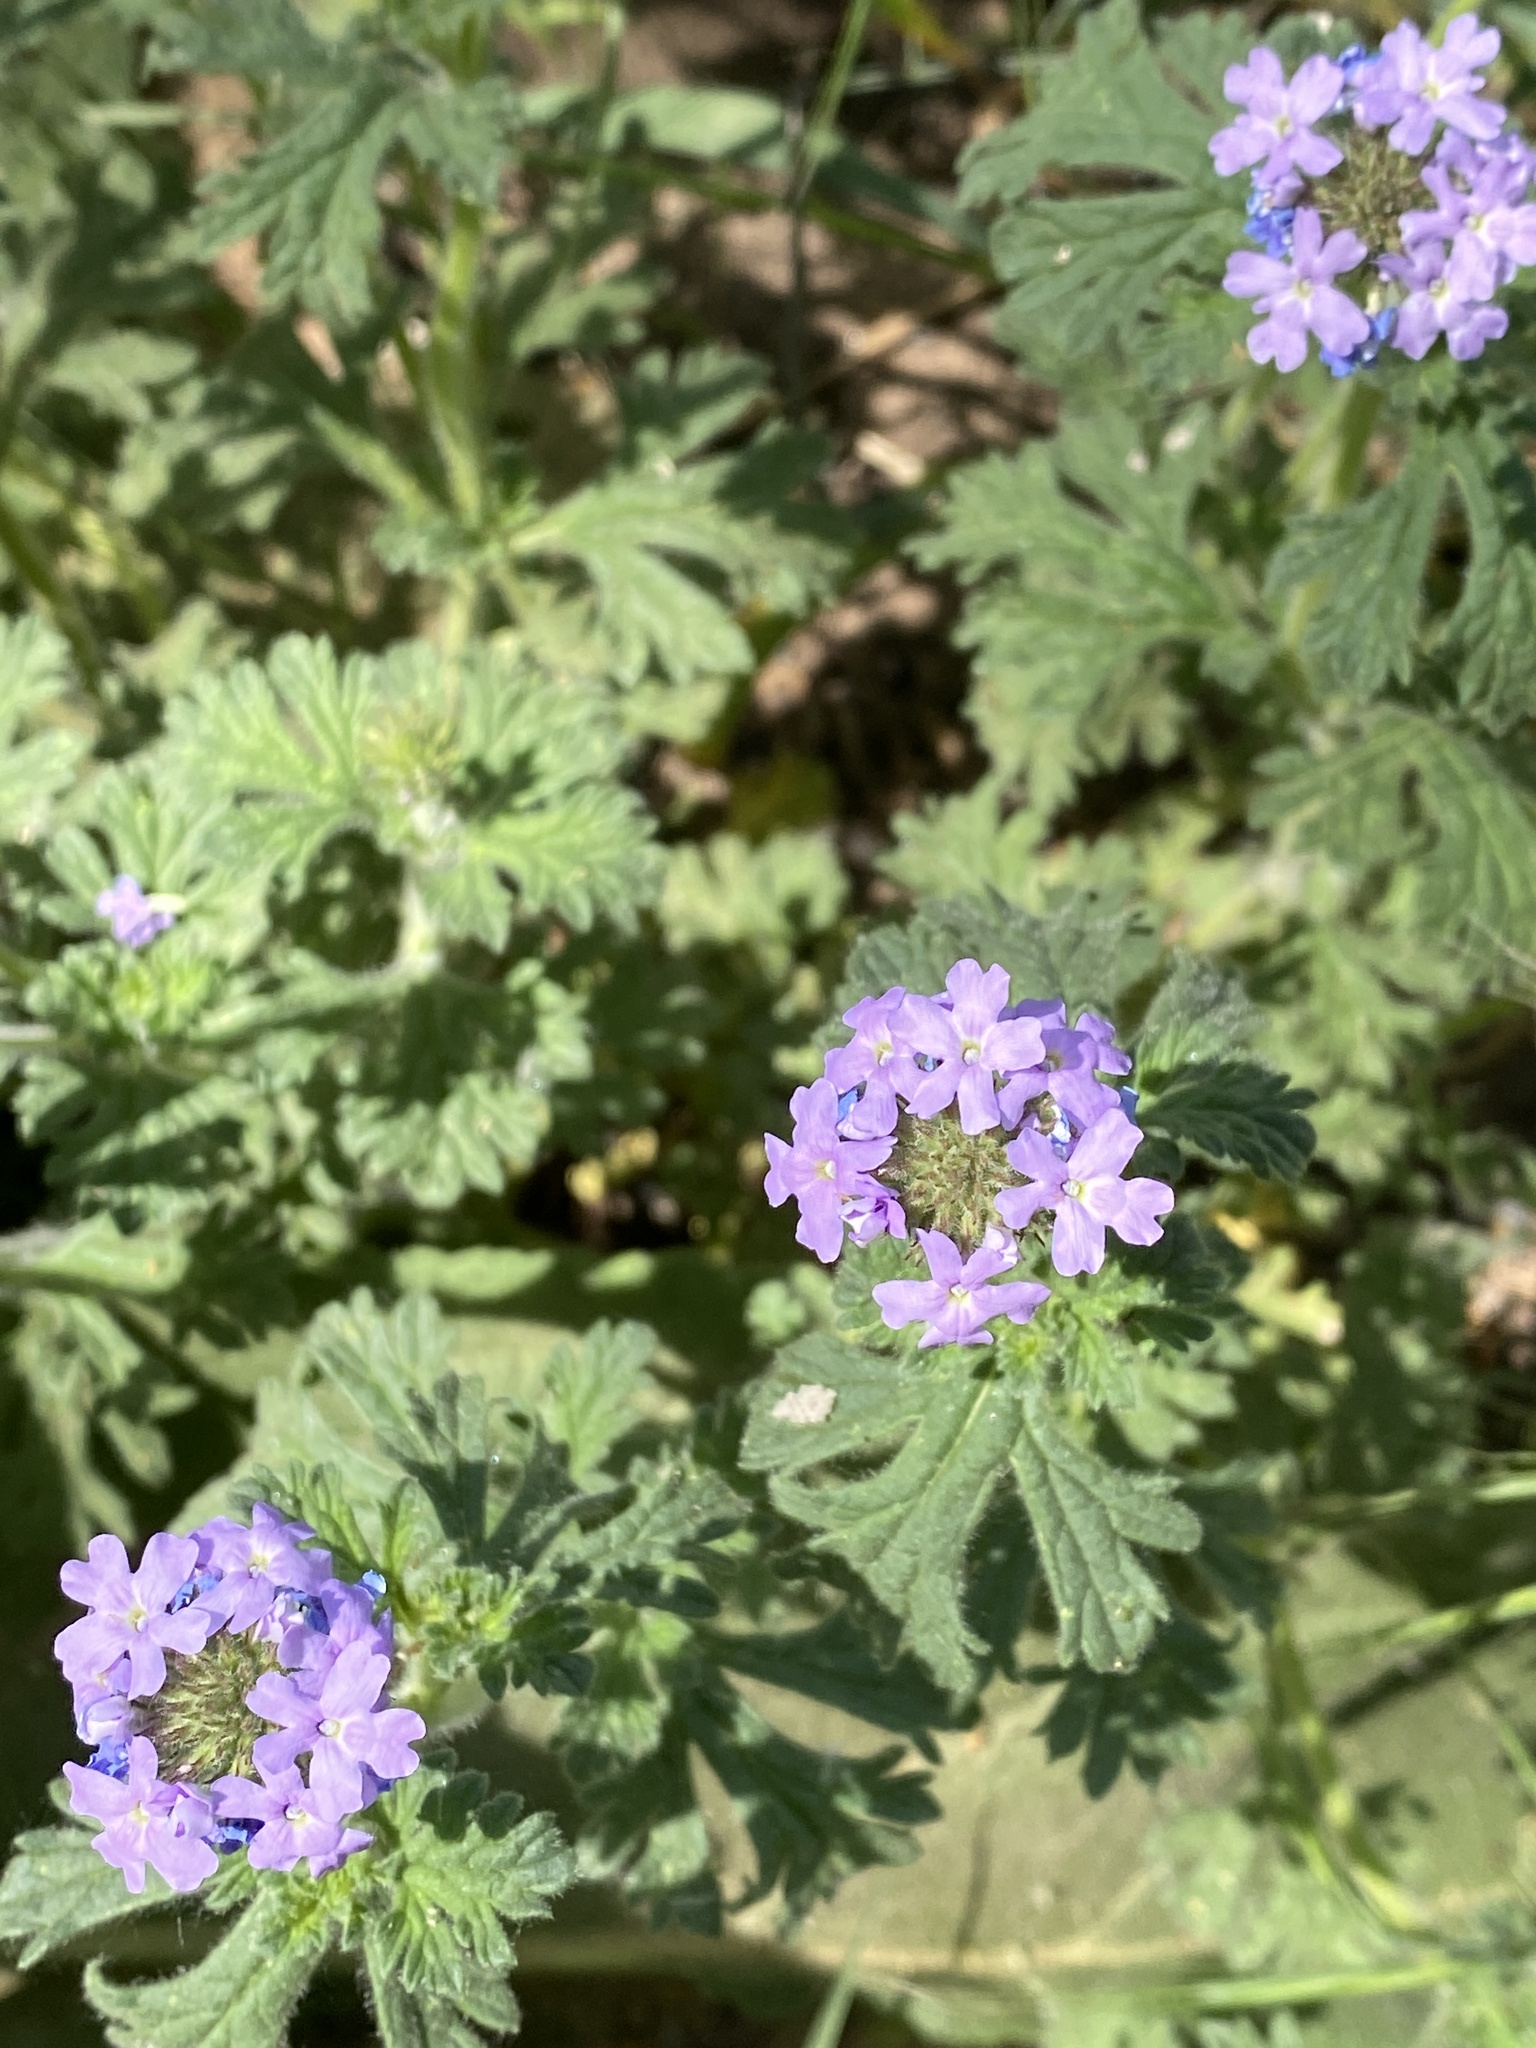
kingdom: Plantae
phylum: Tracheophyta
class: Magnoliopsida
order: Lamiales
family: Verbenaceae
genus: Verbena
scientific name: Verbena gooddingii
